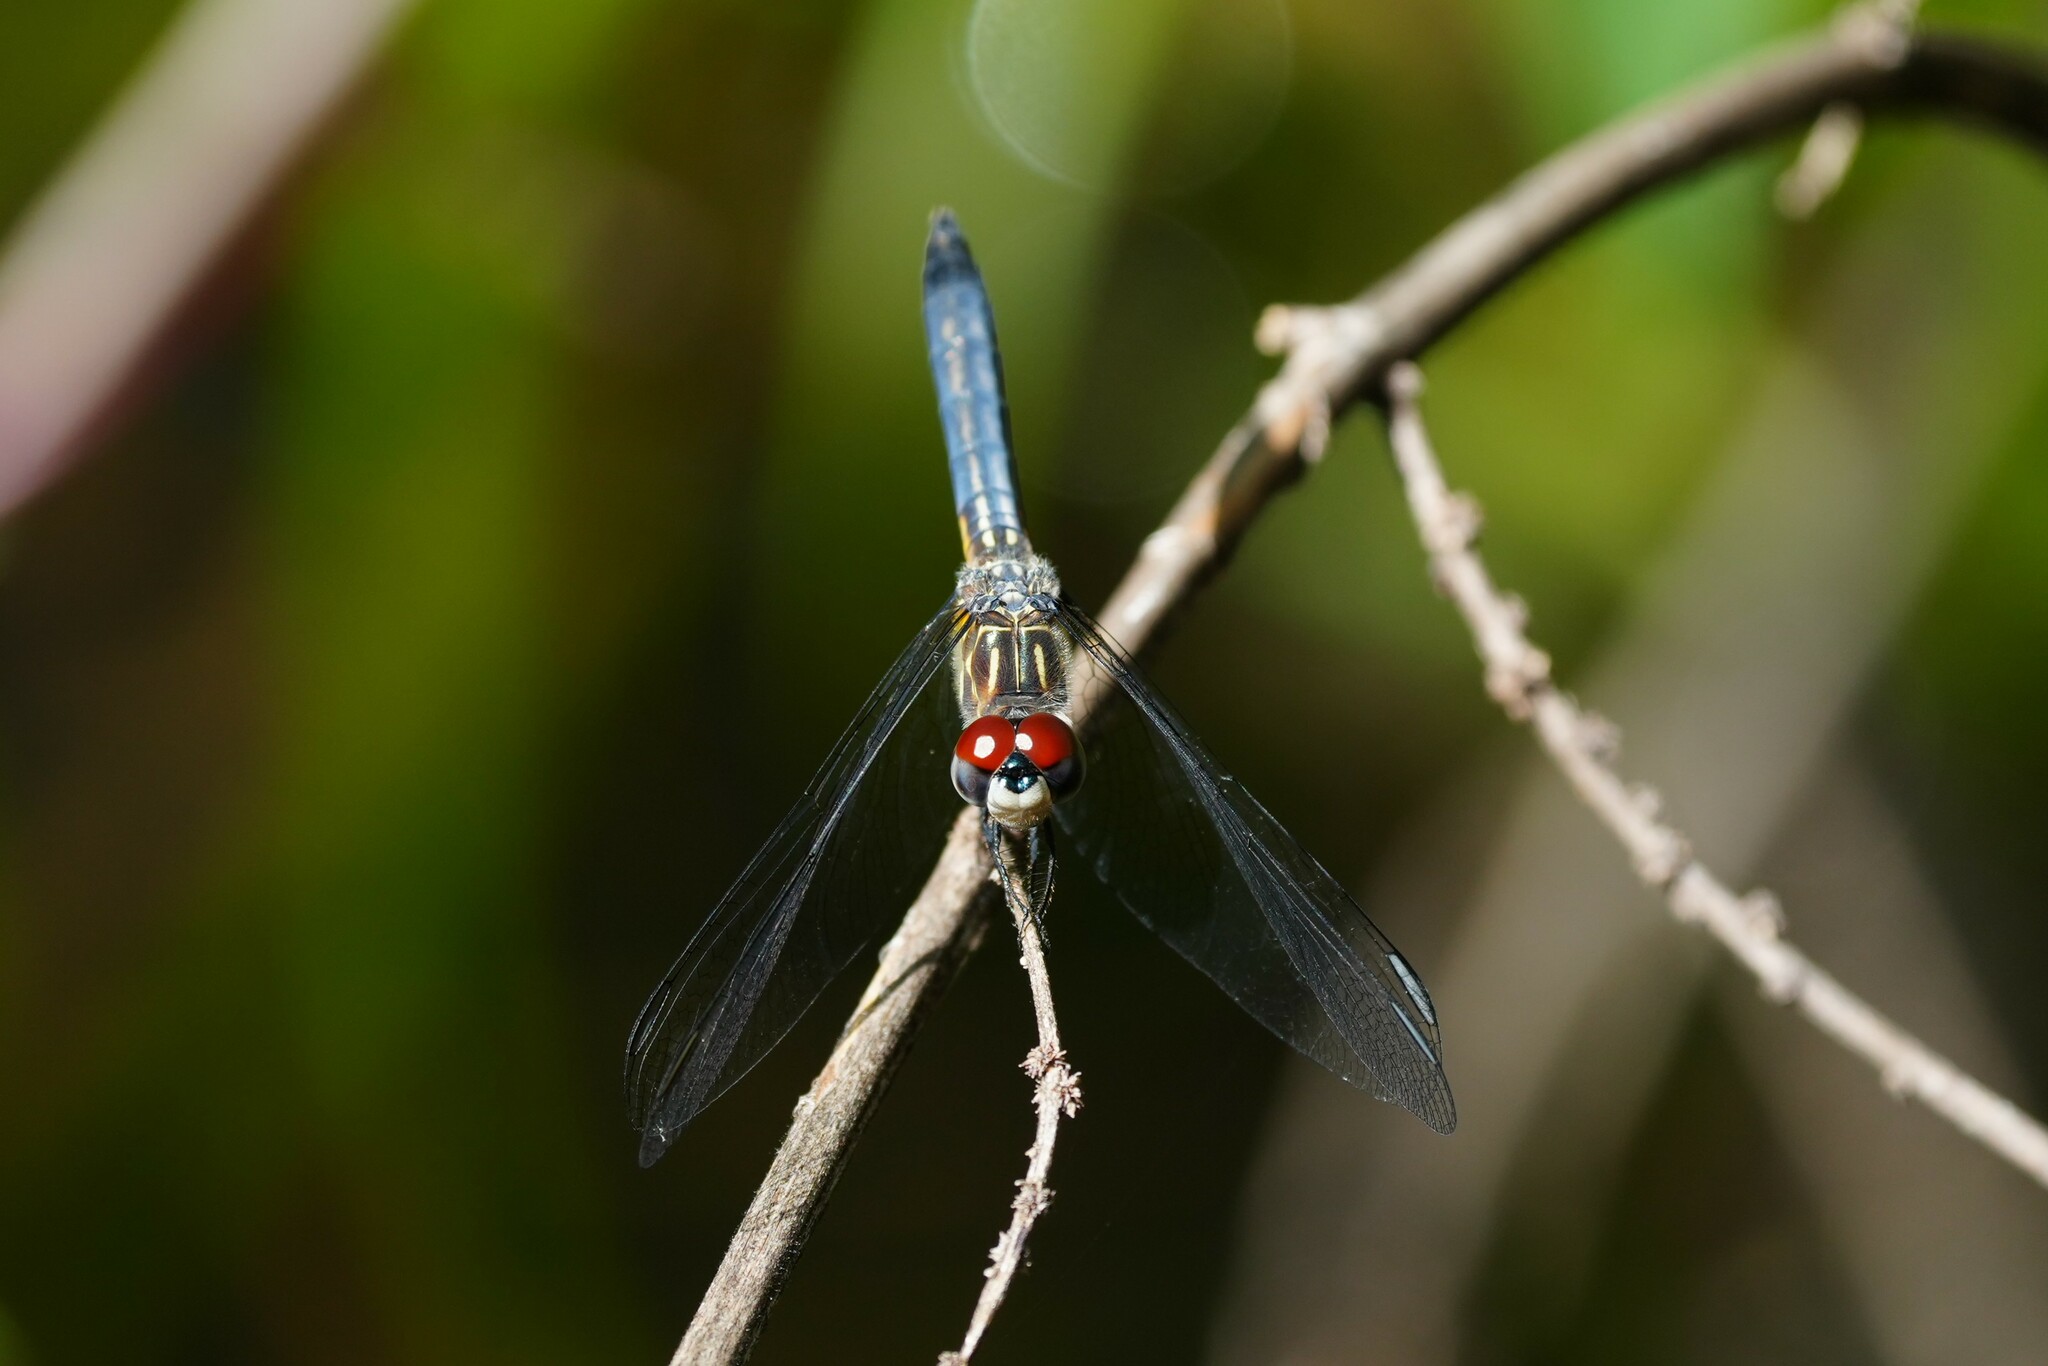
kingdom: Animalia
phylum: Arthropoda
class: Insecta
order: Odonata
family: Libellulidae
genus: Pachydiplax
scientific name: Pachydiplax longipennis
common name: Blue dasher
